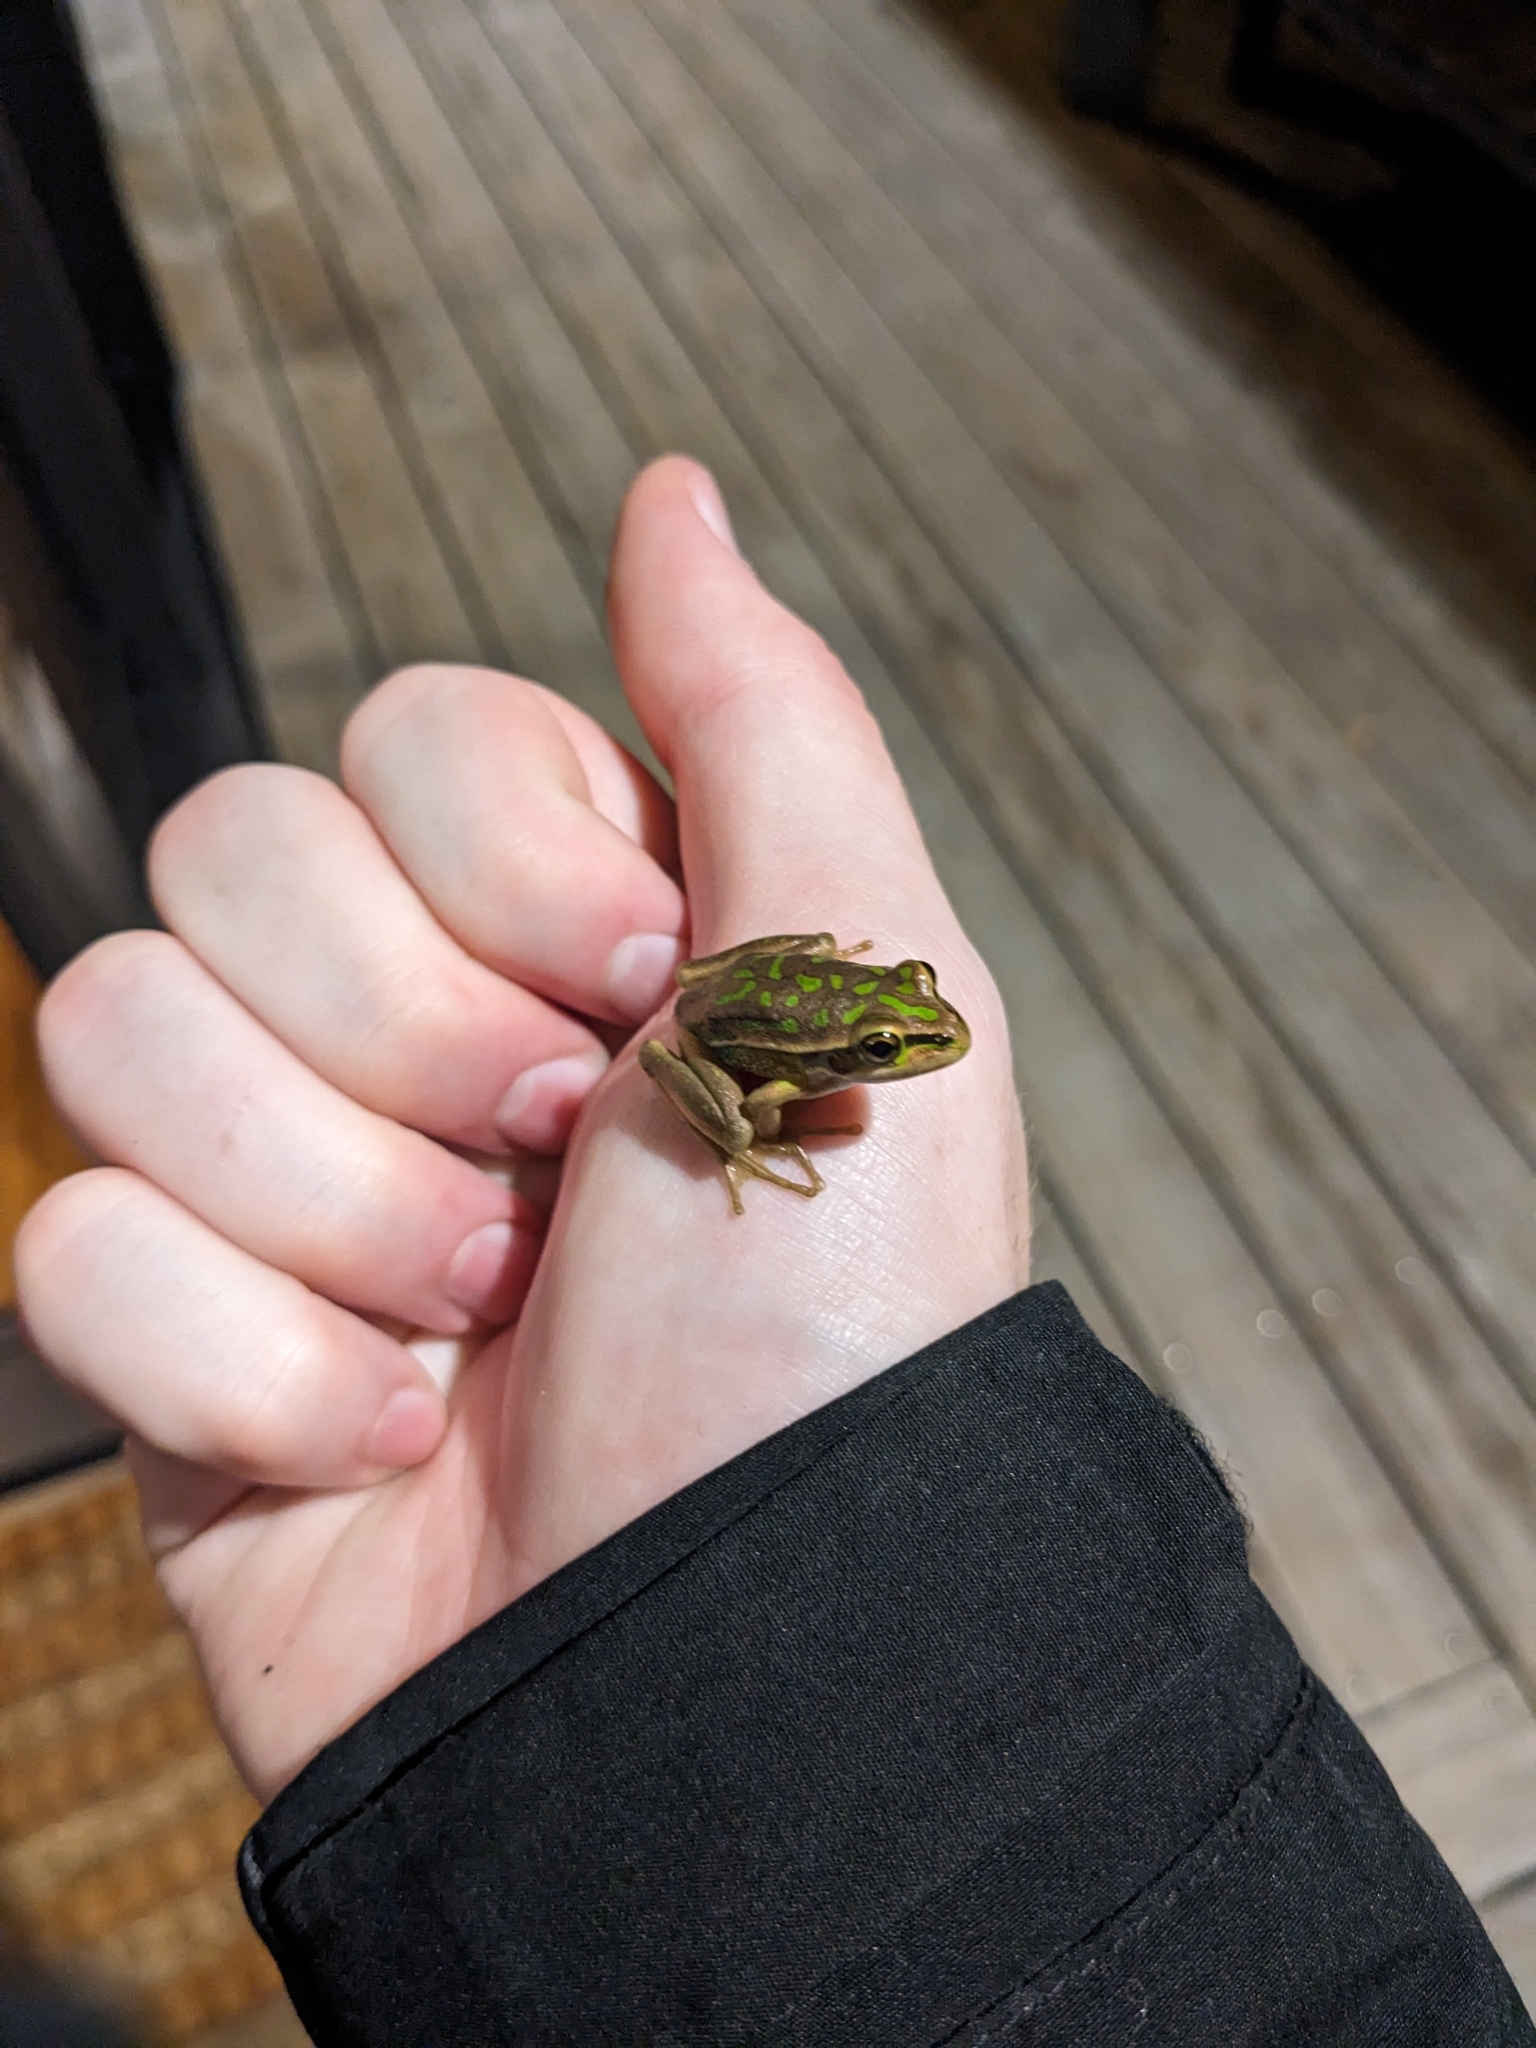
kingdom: Animalia
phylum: Chordata
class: Amphibia
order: Anura
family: Pelodryadidae
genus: Ranoidea
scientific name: Ranoidea aurea
